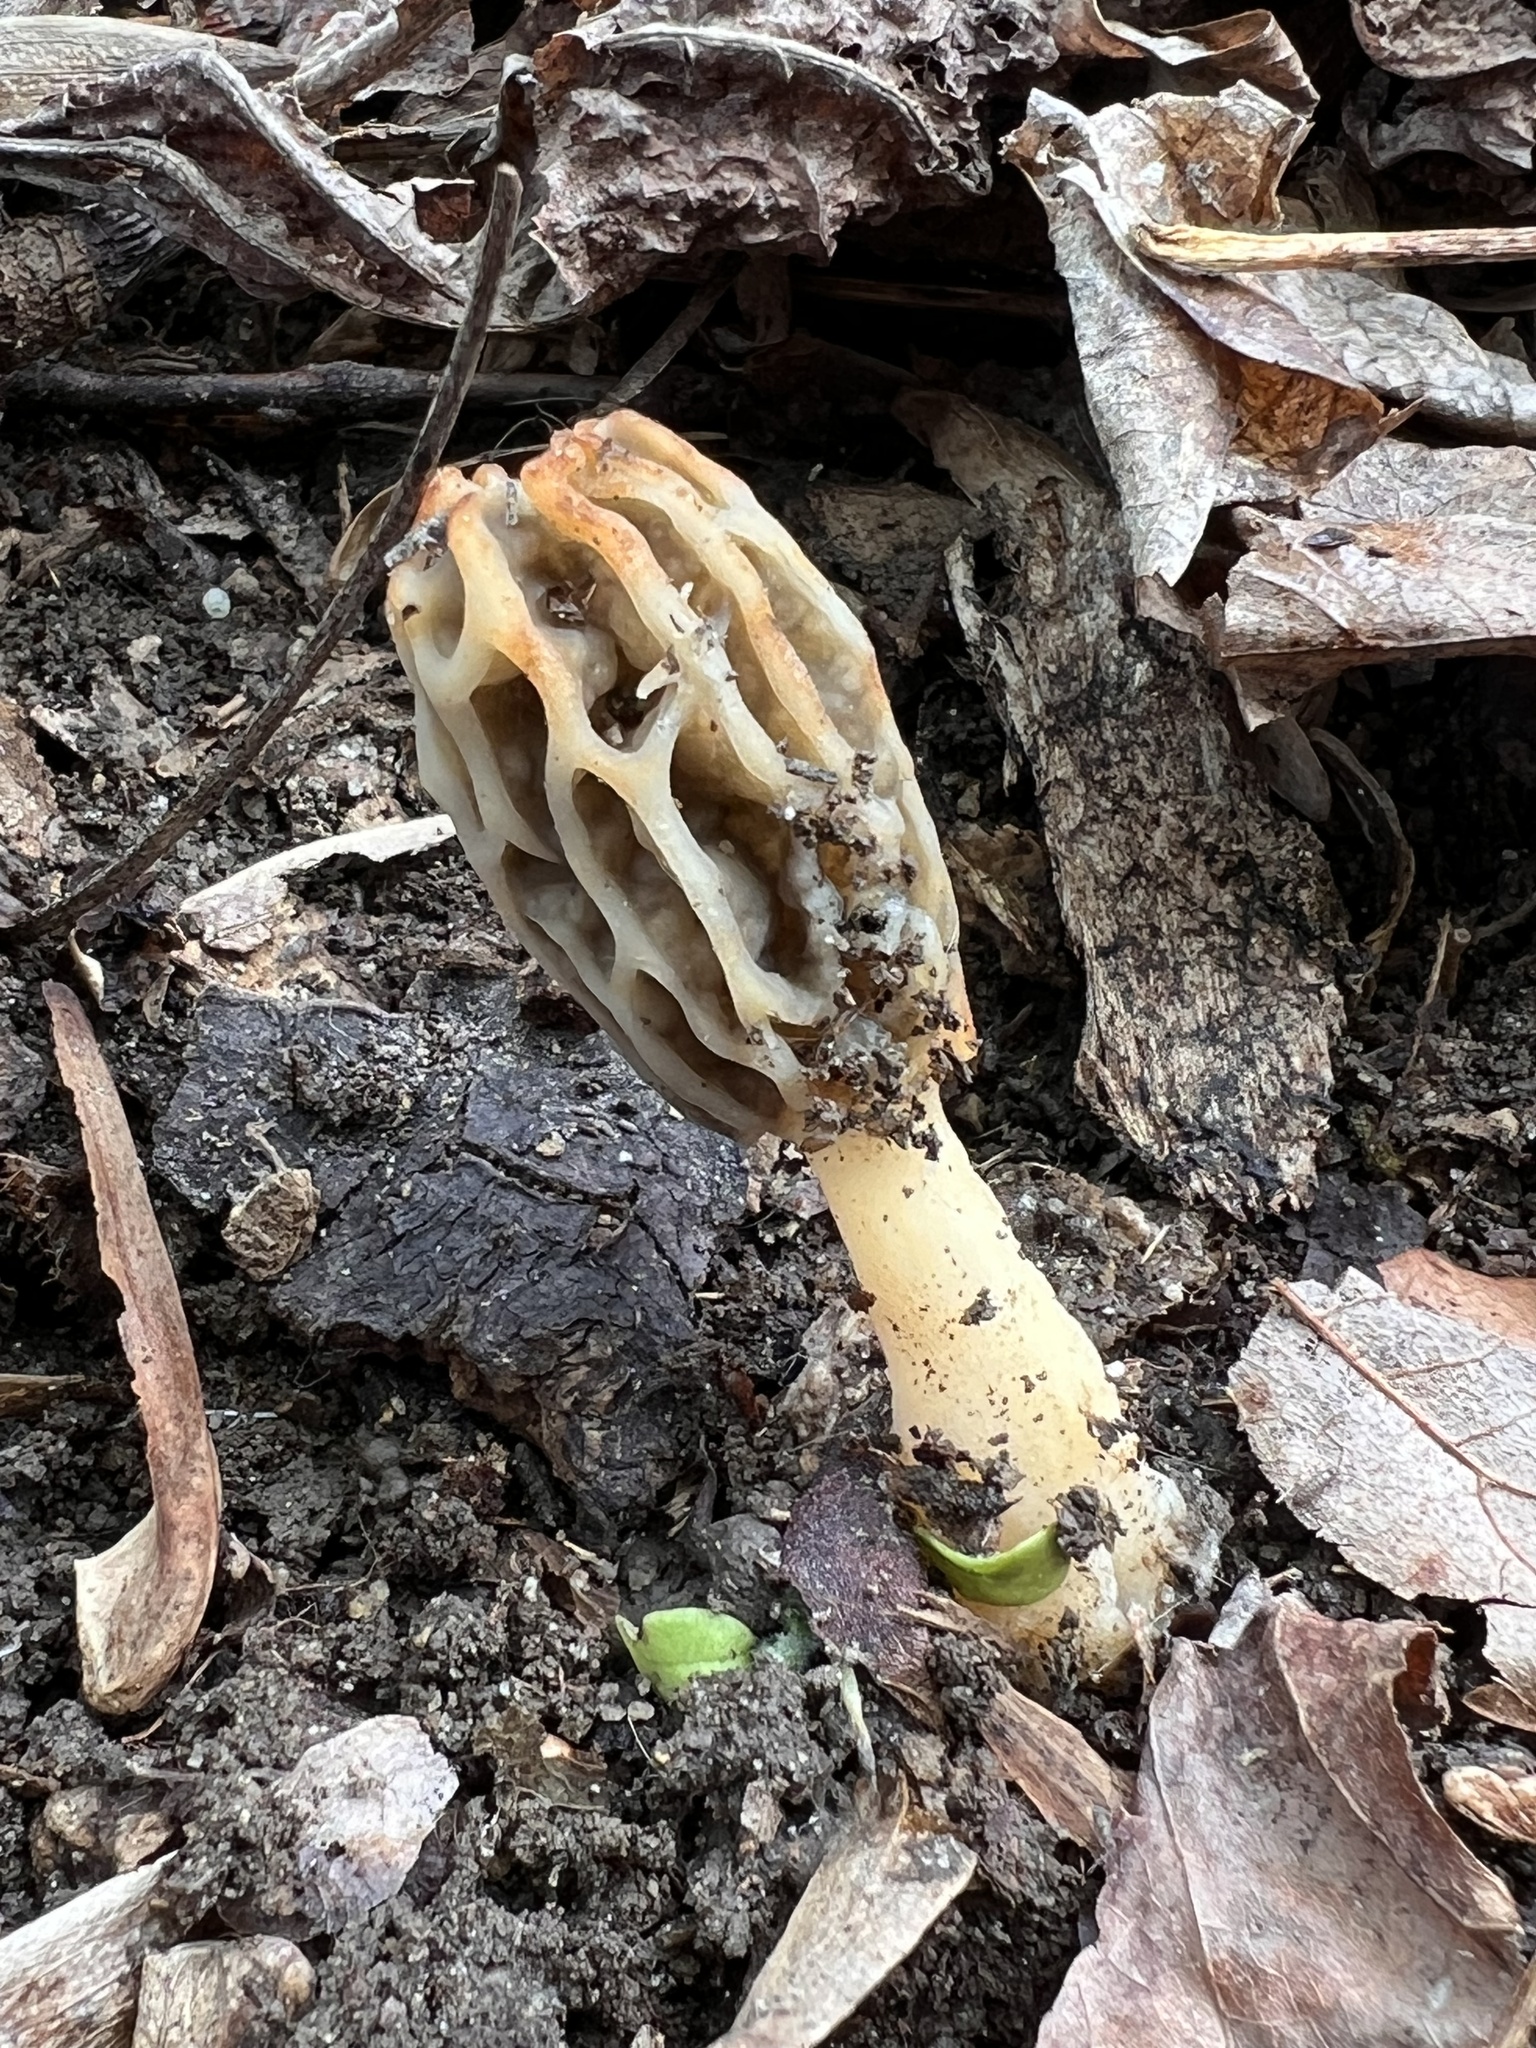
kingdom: Fungi
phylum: Ascomycota
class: Pezizomycetes
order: Pezizales
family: Morchellaceae
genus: Morchella
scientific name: Morchella diminutiva
